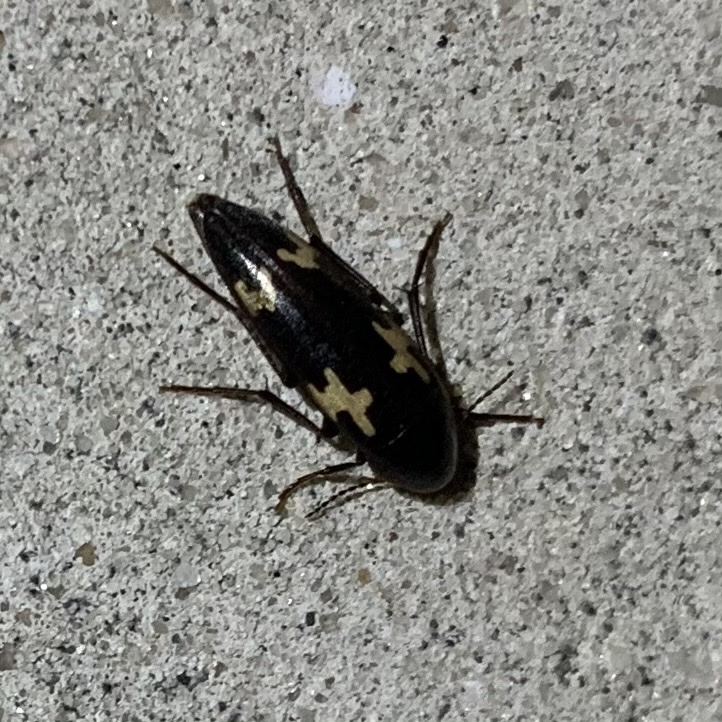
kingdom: Animalia
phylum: Arthropoda
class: Insecta
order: Coleoptera
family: Melandryidae
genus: Dircaea
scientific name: Dircaea liturata
